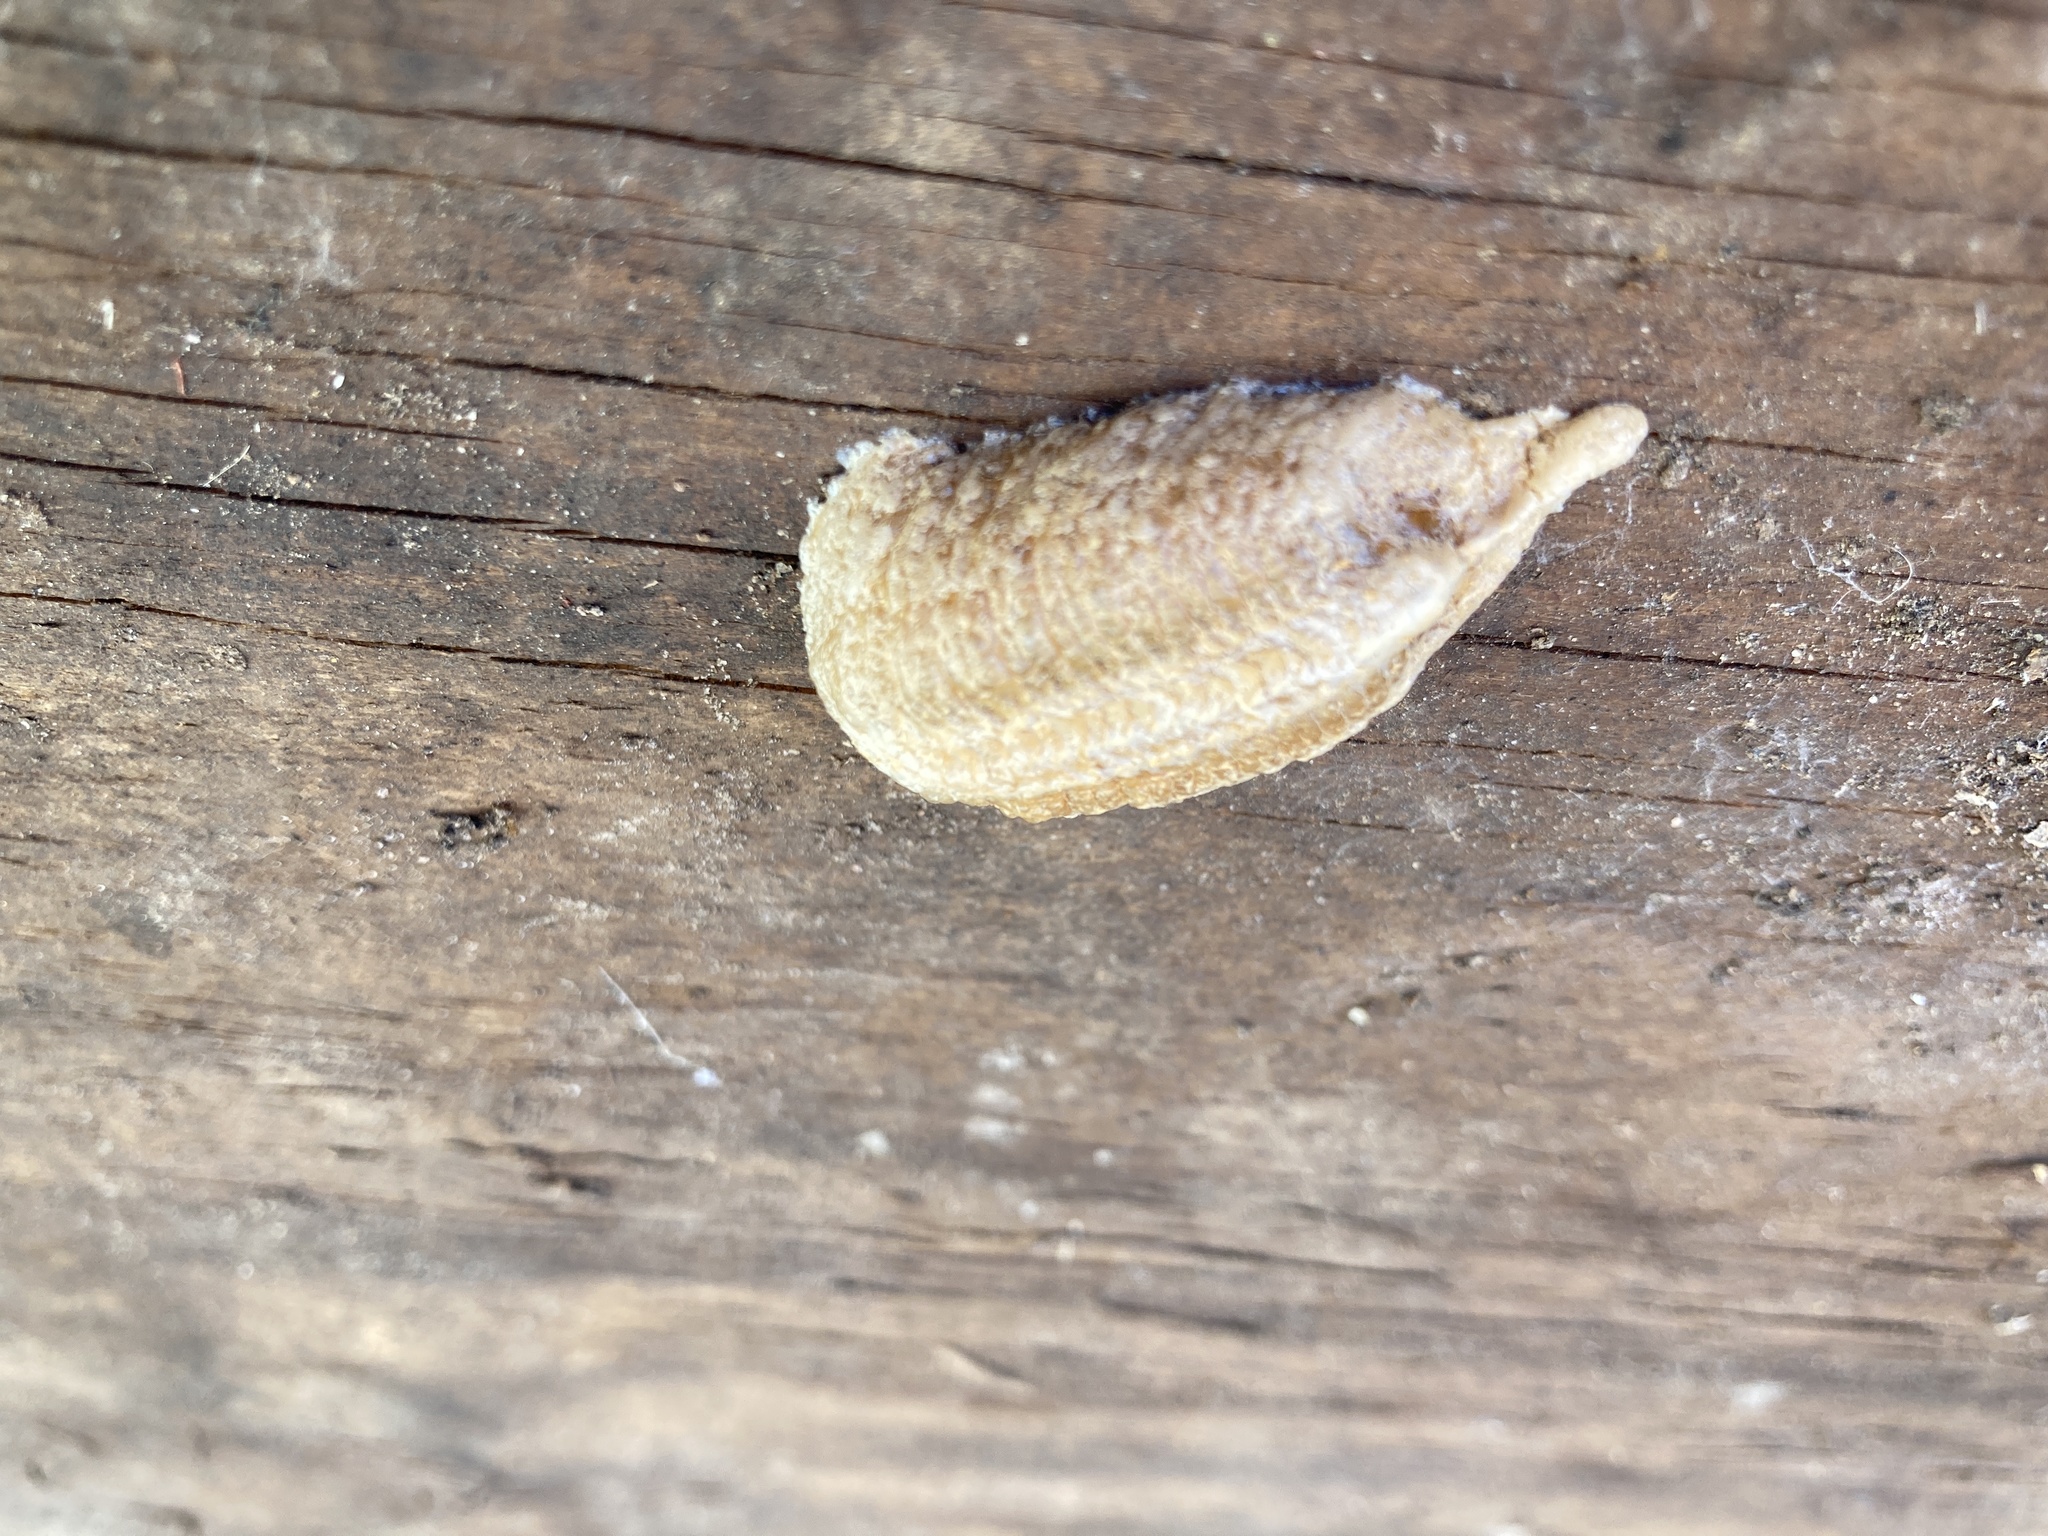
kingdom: Animalia
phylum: Arthropoda
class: Insecta
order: Mantodea
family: Mantidae
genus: Mantis
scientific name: Mantis religiosa
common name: Praying mantis
